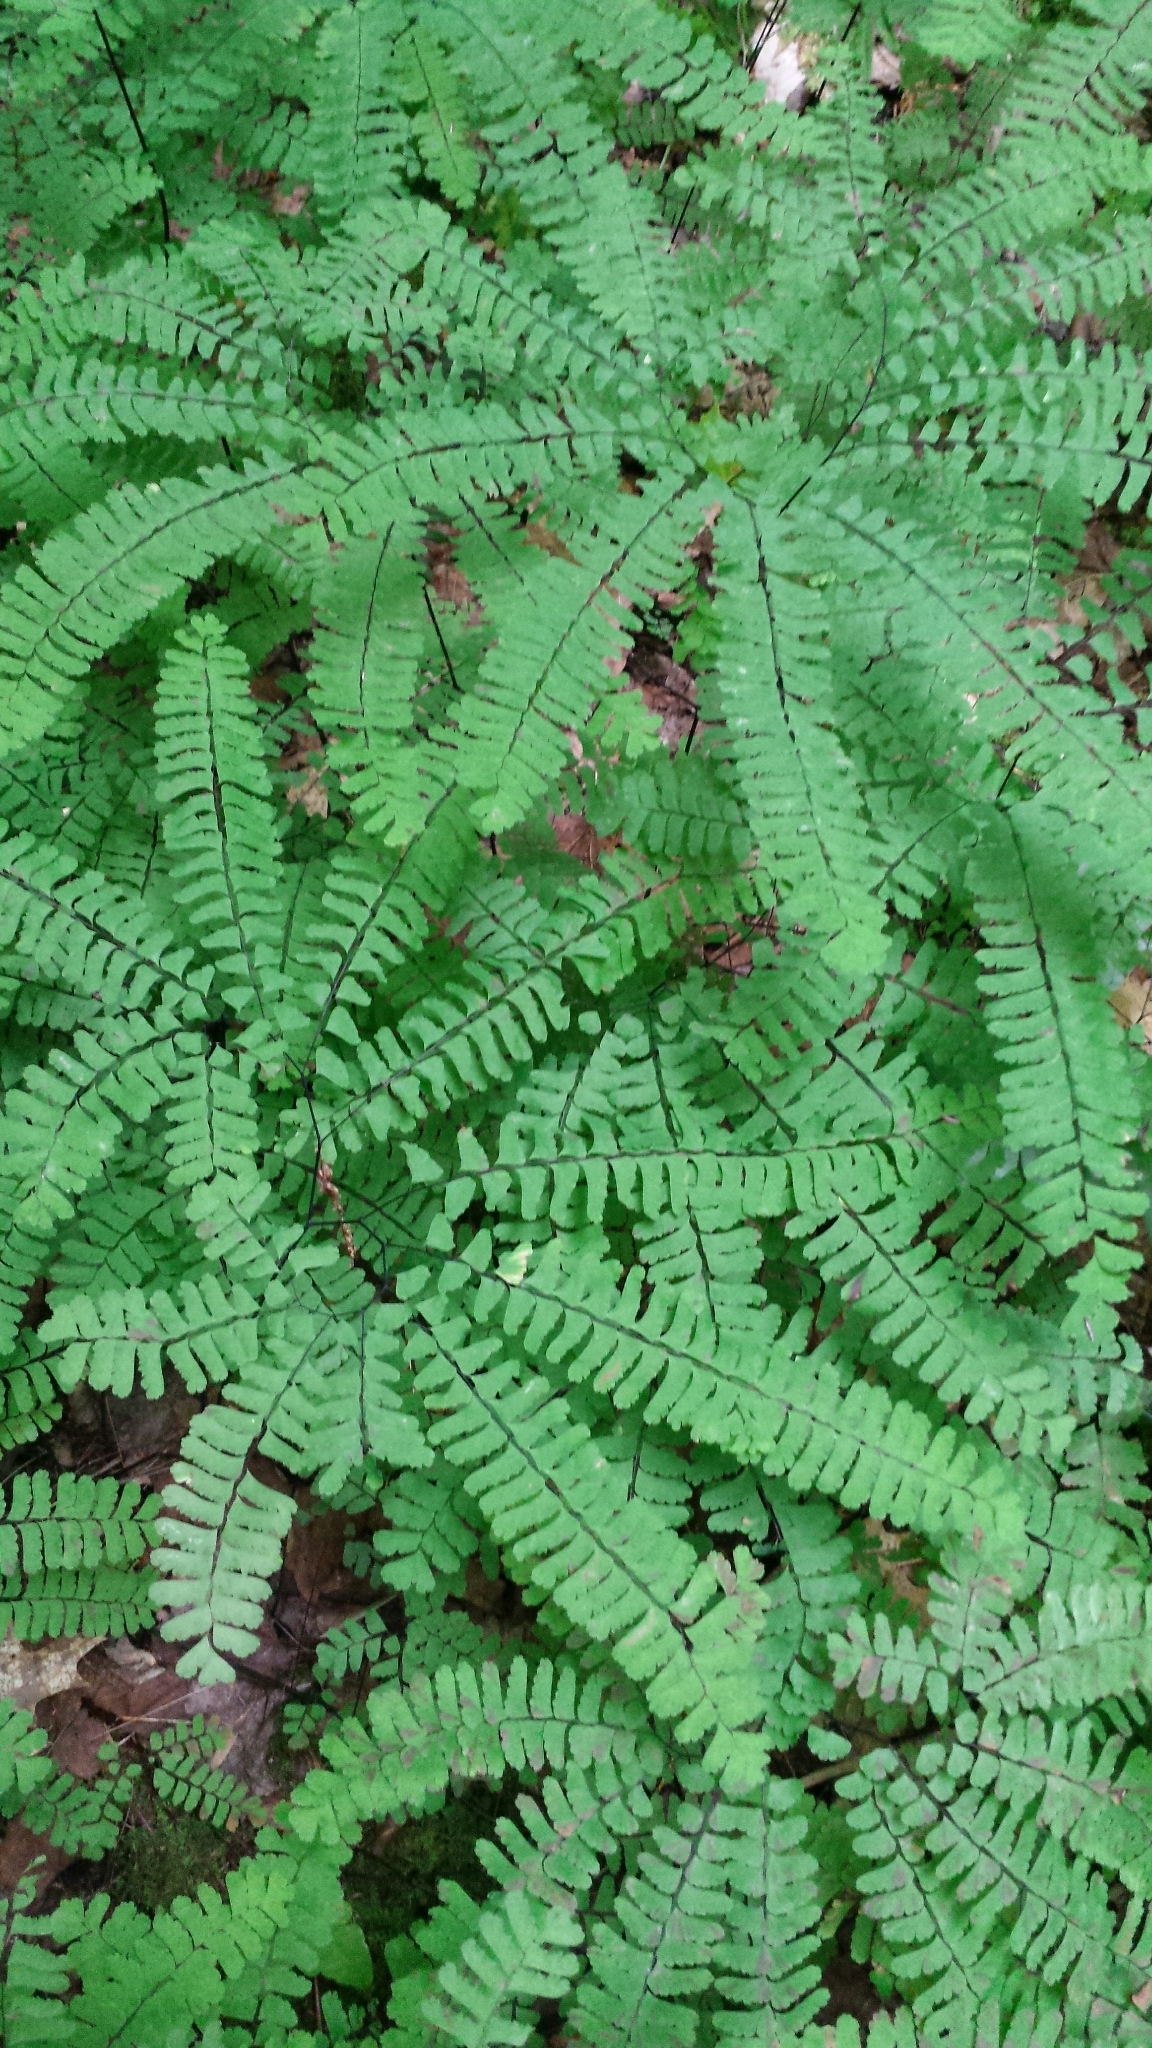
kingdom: Plantae
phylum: Tracheophyta
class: Polypodiopsida
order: Polypodiales
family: Pteridaceae
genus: Adiantum
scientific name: Adiantum pedatum
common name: Five-finger fern
